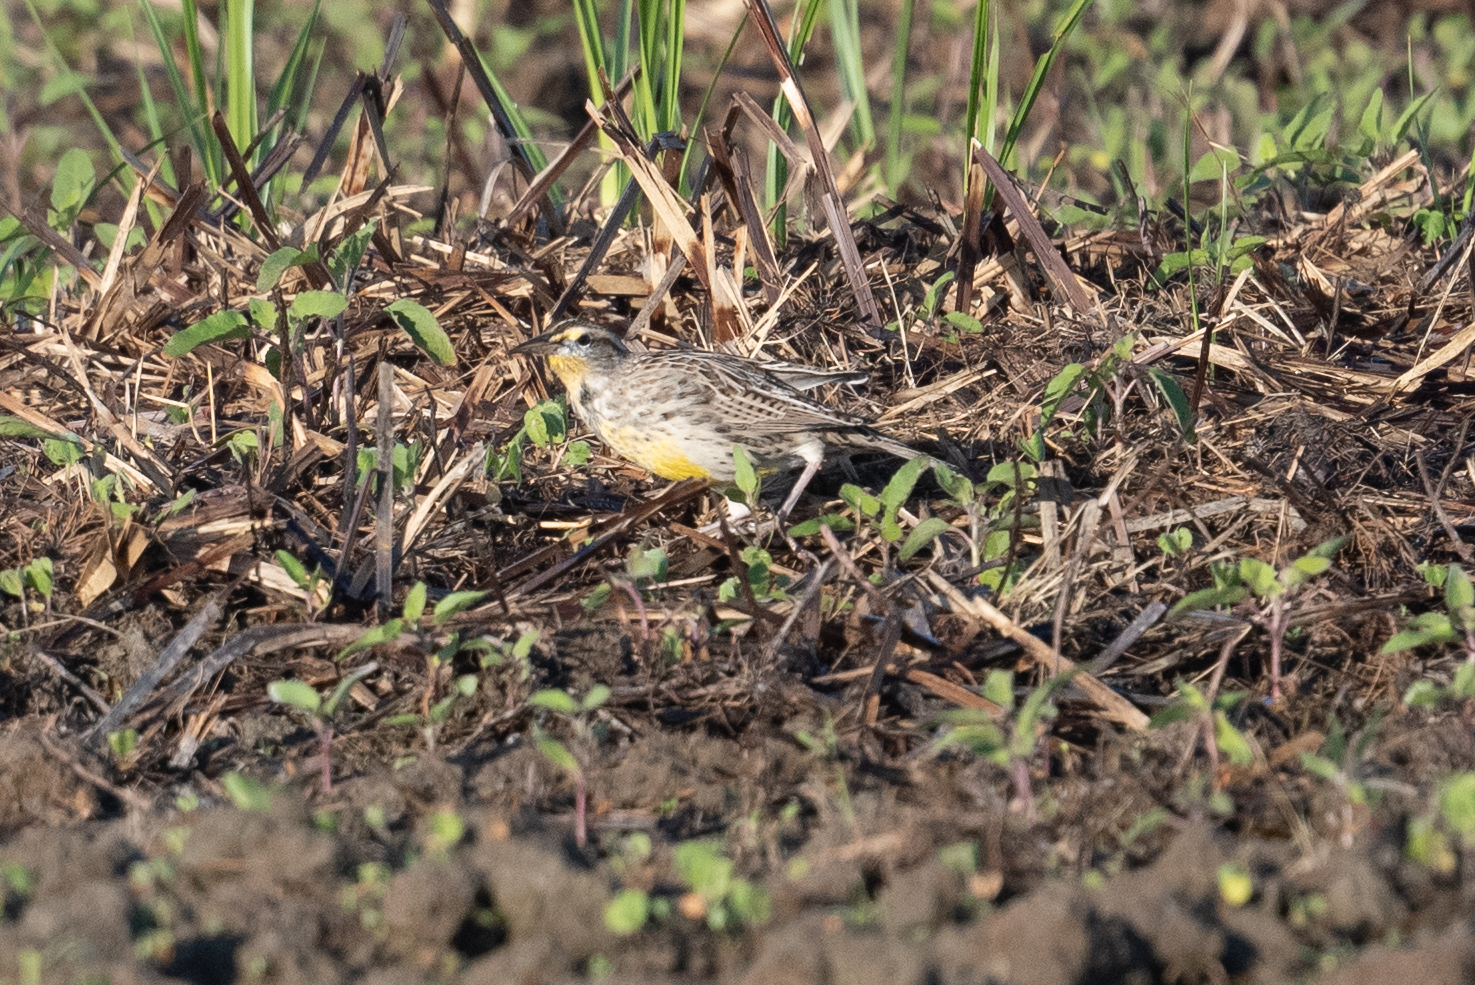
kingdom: Animalia
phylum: Chordata
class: Aves
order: Passeriformes
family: Icteridae
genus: Sturnella
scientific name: Sturnella neglecta
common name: Western meadowlark
